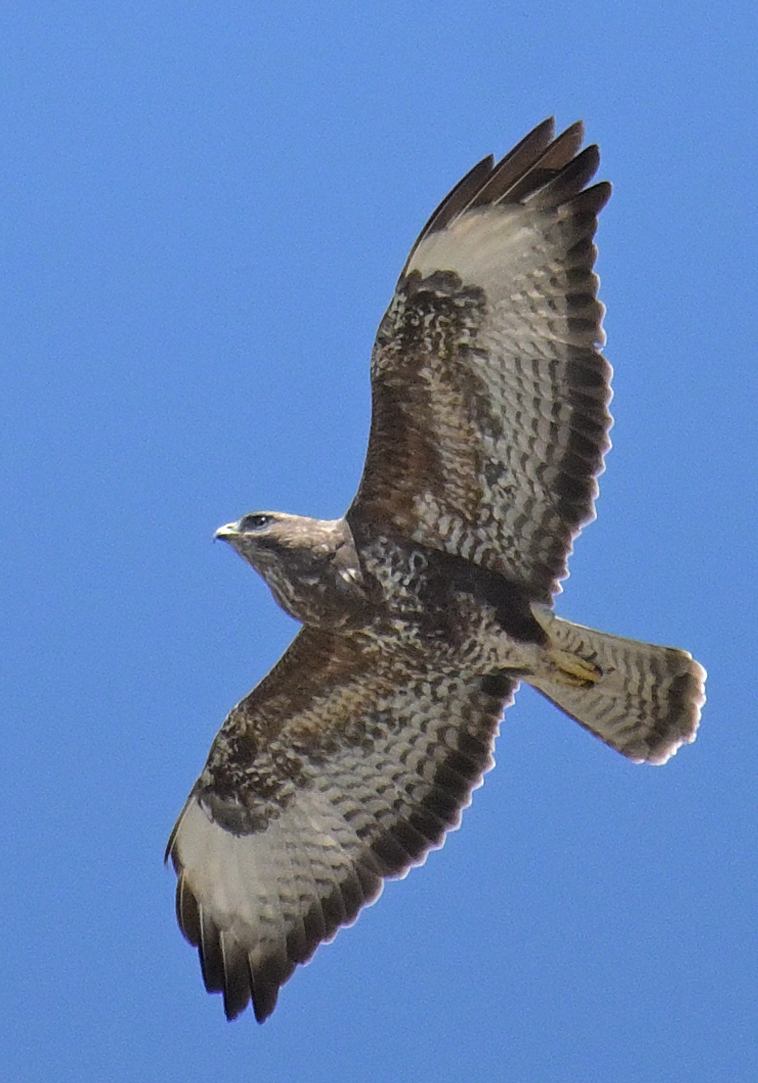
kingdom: Animalia
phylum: Chordata
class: Aves
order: Accipitriformes
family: Accipitridae
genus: Buteo
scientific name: Buteo buteo
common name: Common buzzard
